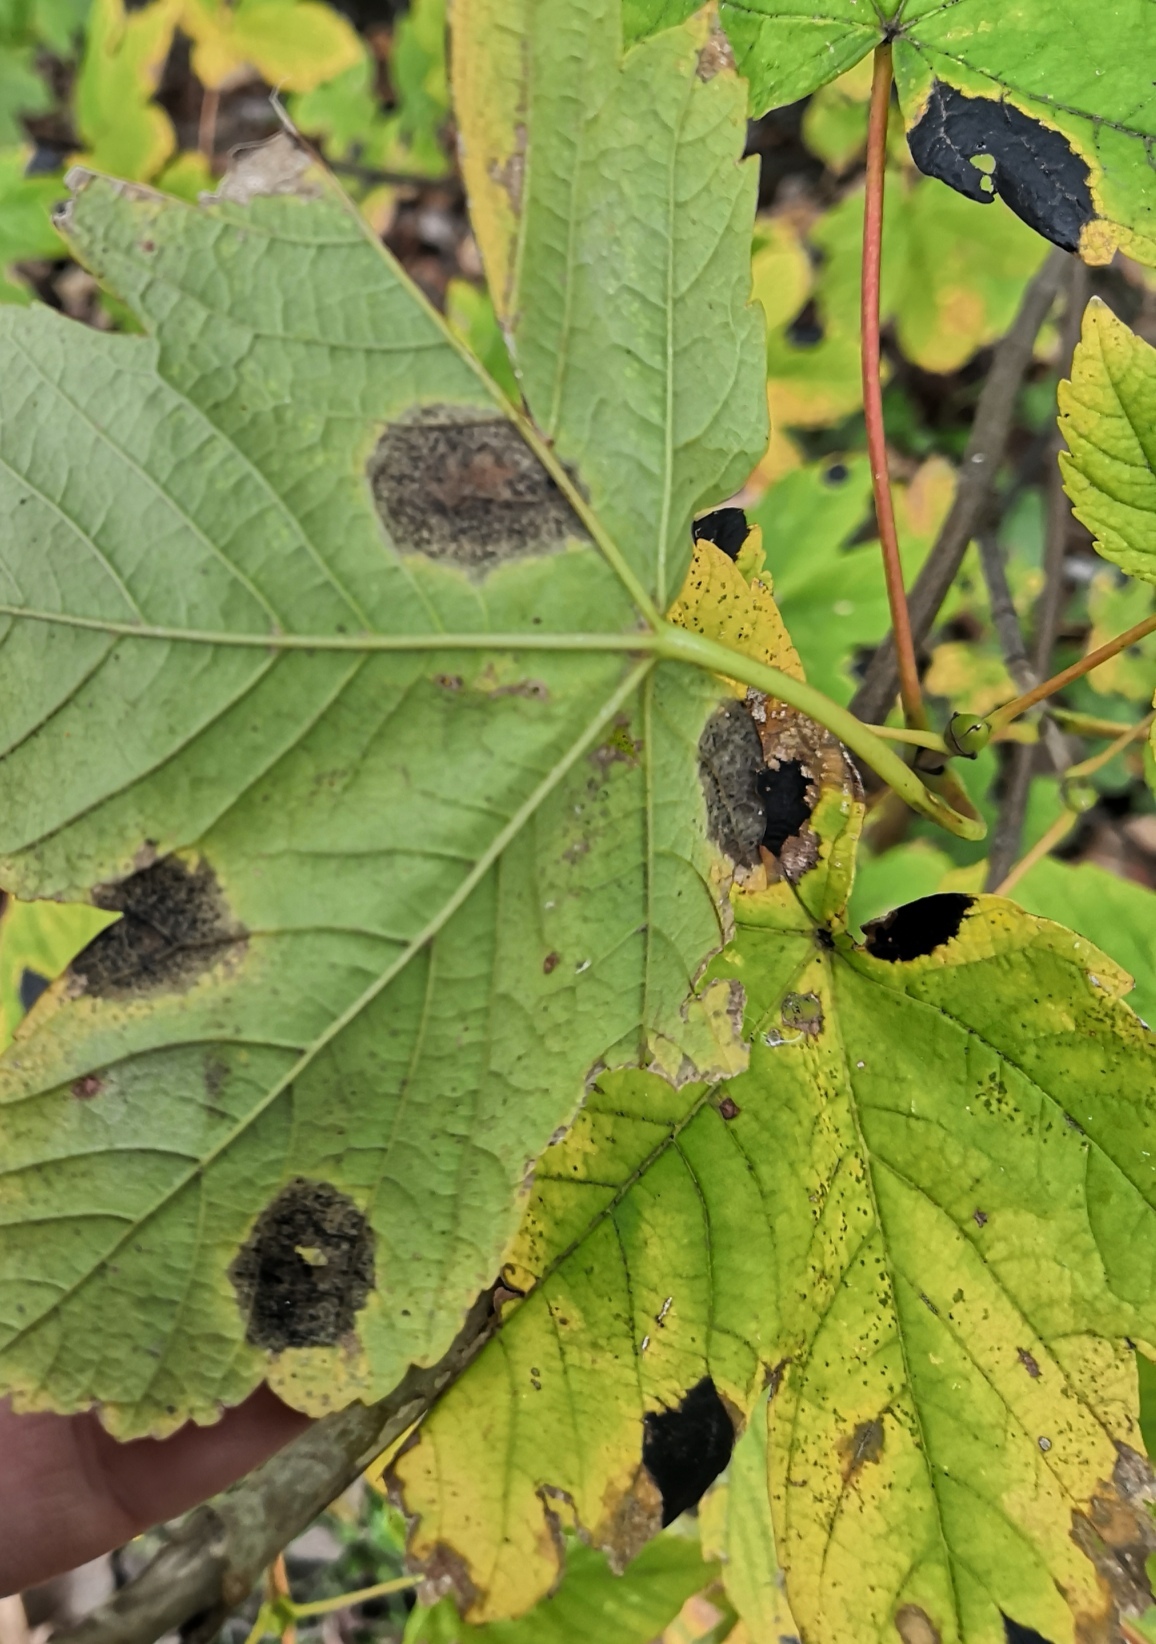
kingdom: Fungi
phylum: Ascomycota
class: Leotiomycetes
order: Rhytismatales
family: Rhytismataceae
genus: Rhytisma
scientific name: Rhytisma acerinum
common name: European tar spot
